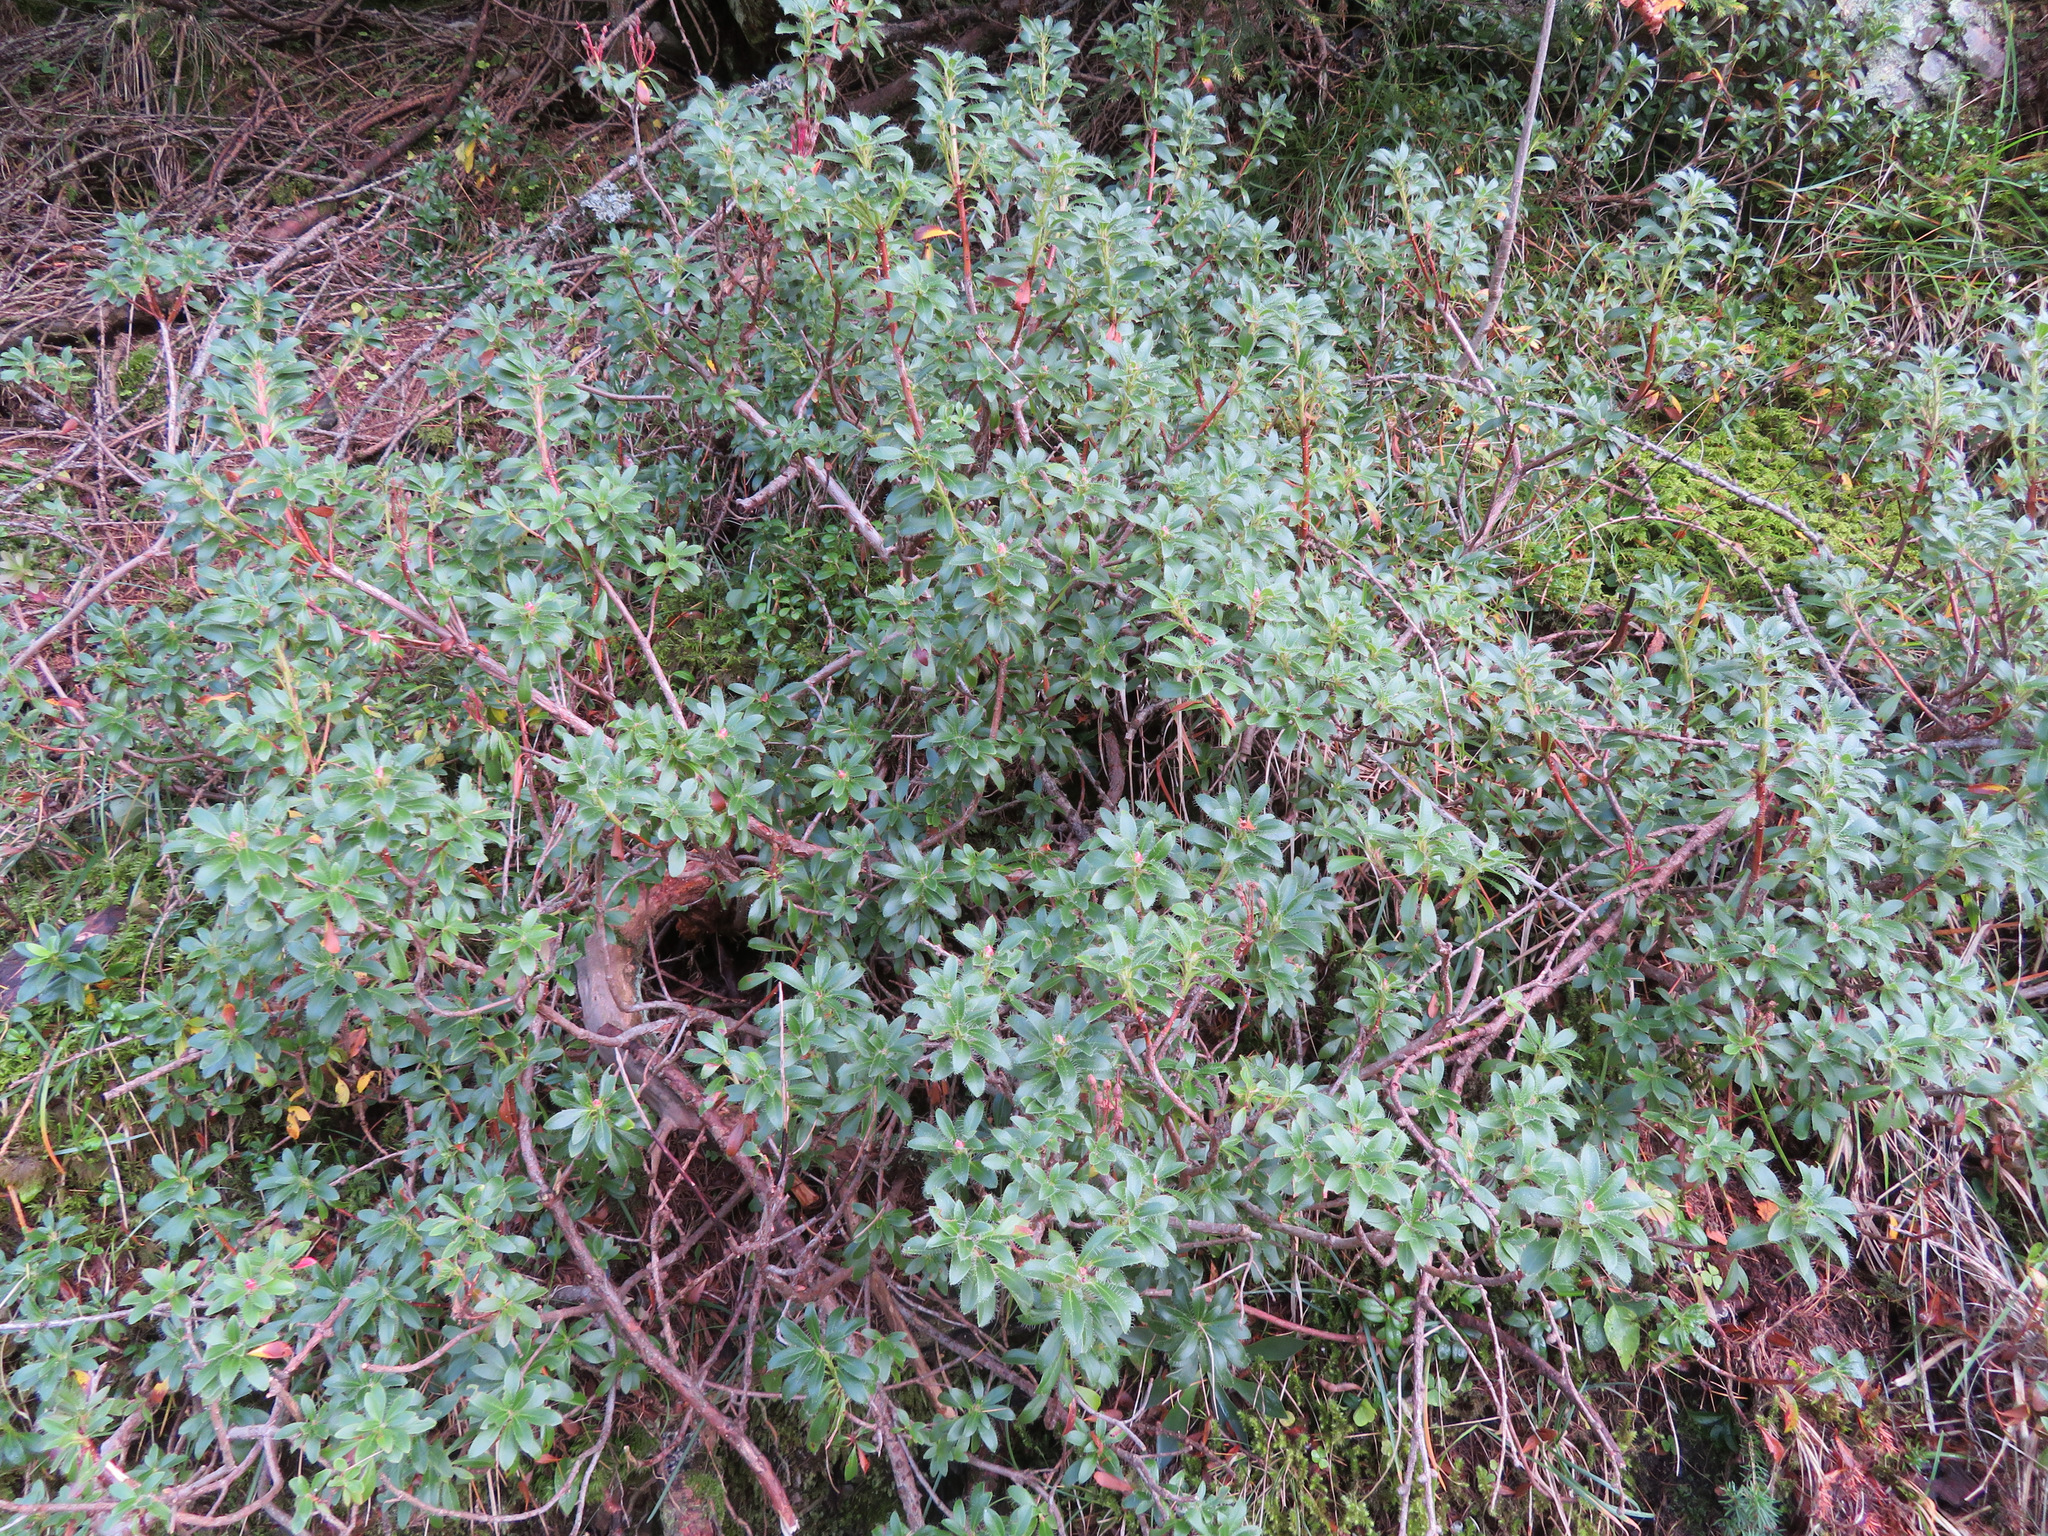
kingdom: Plantae
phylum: Tracheophyta
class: Magnoliopsida
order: Ericales
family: Ericaceae
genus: Rhododendron
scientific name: Rhododendron hirsutum
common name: Hairy alpenrose
